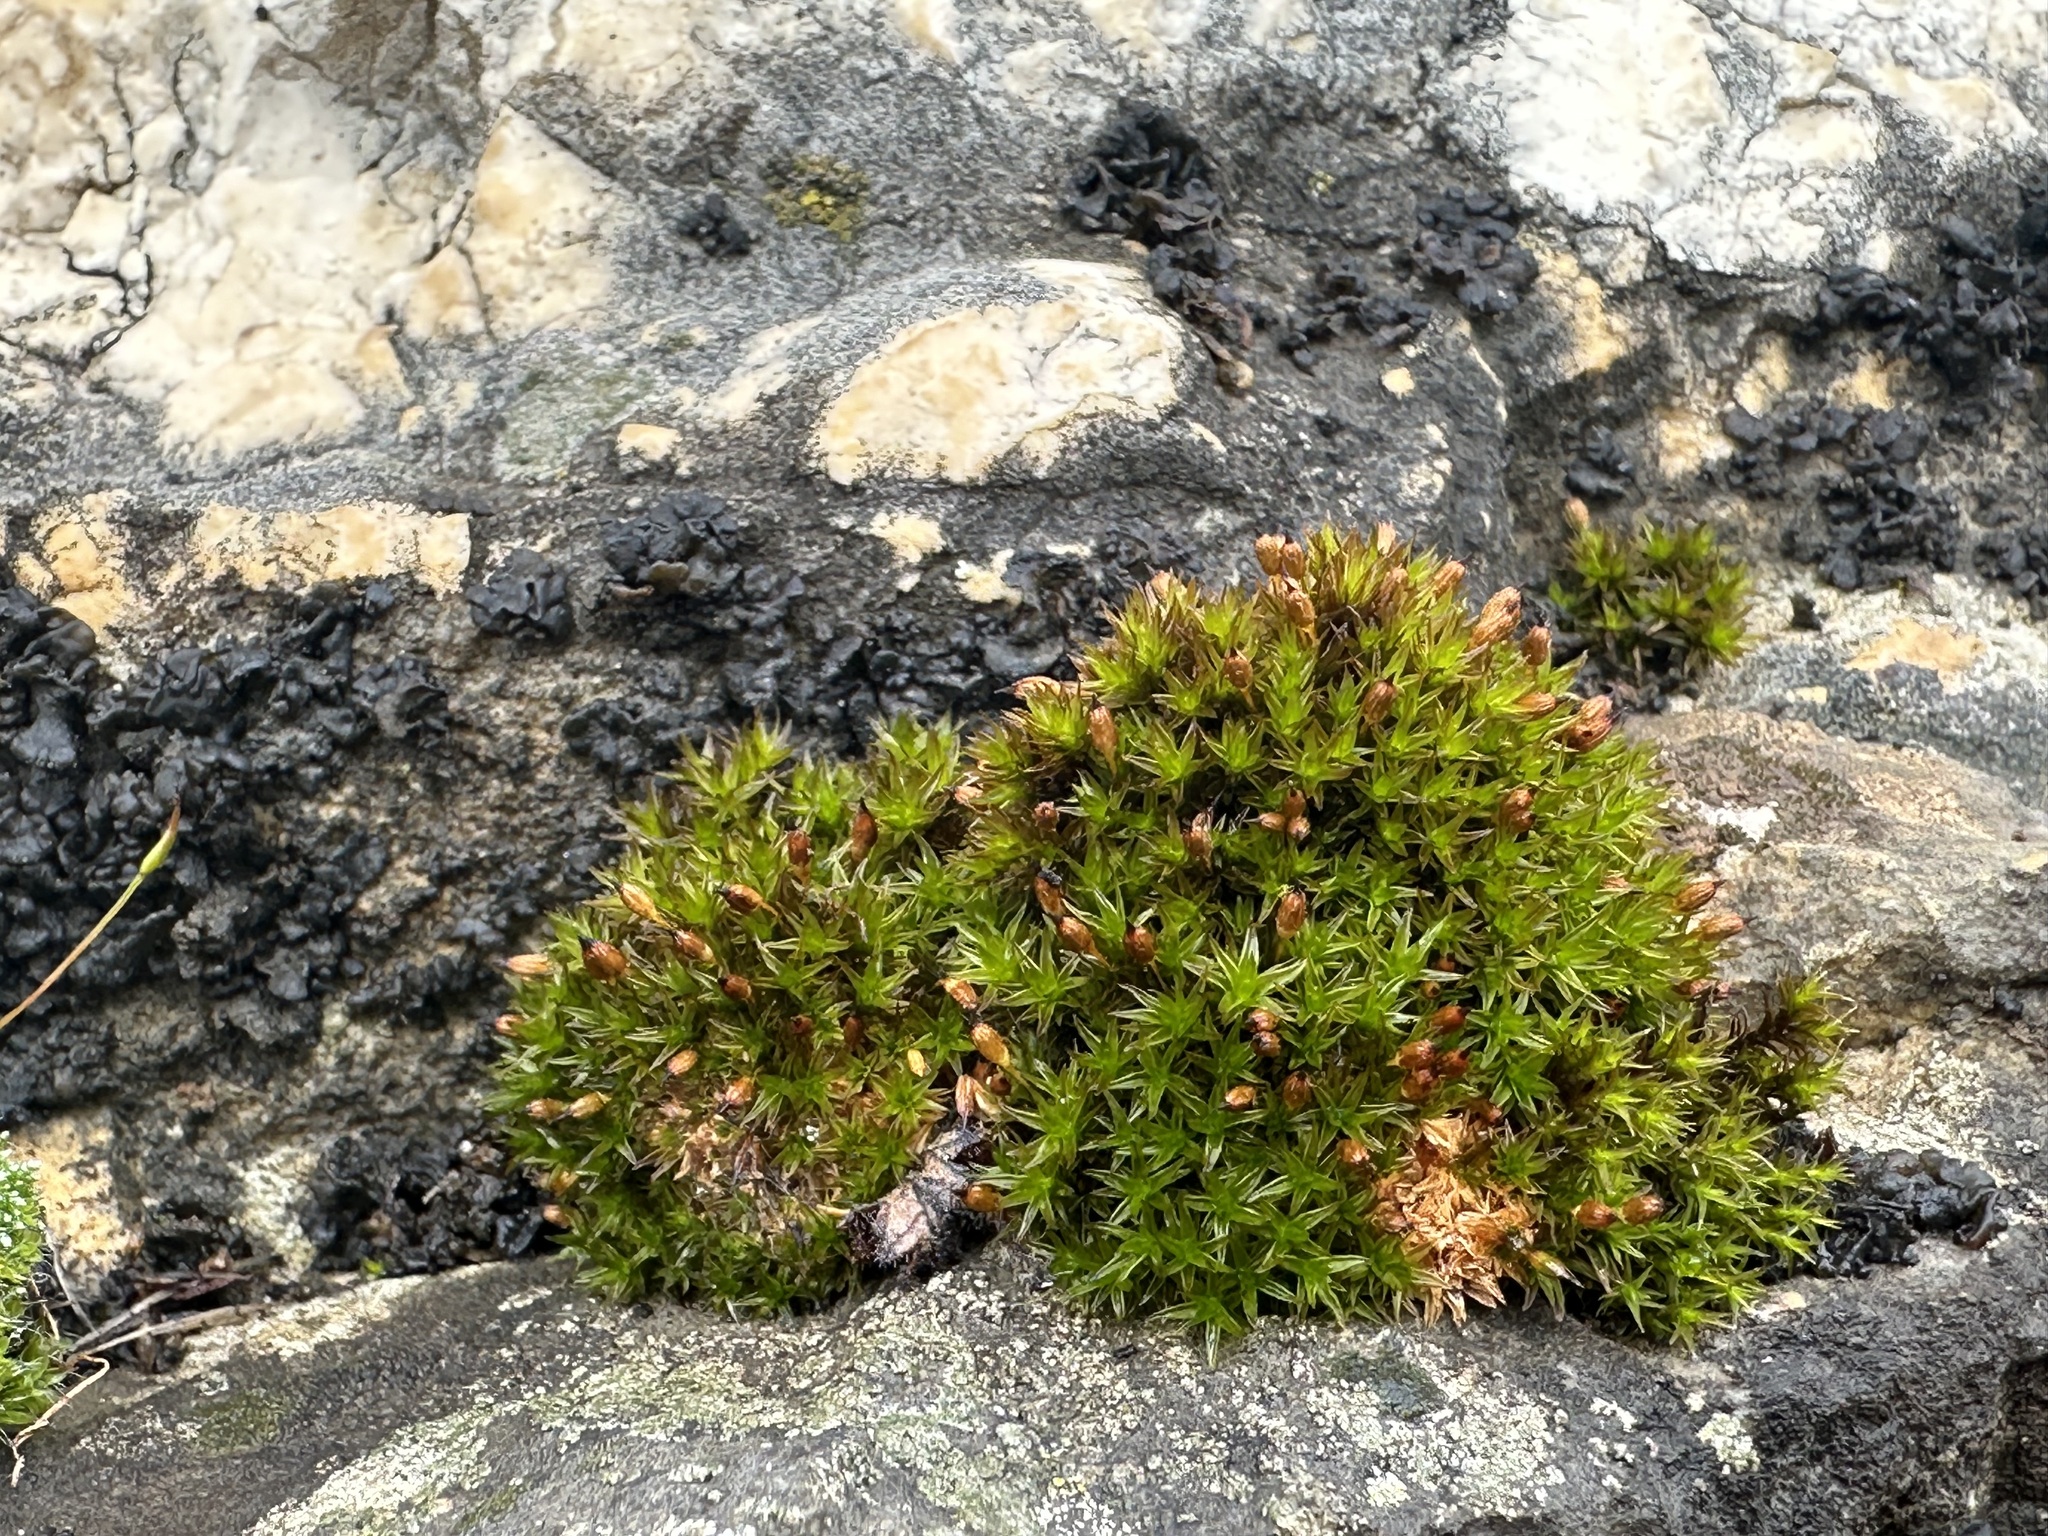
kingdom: Plantae
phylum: Bryophyta
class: Bryopsida
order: Orthotrichales
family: Orthotrichaceae
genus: Orthotrichum
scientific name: Orthotrichum anomalum
